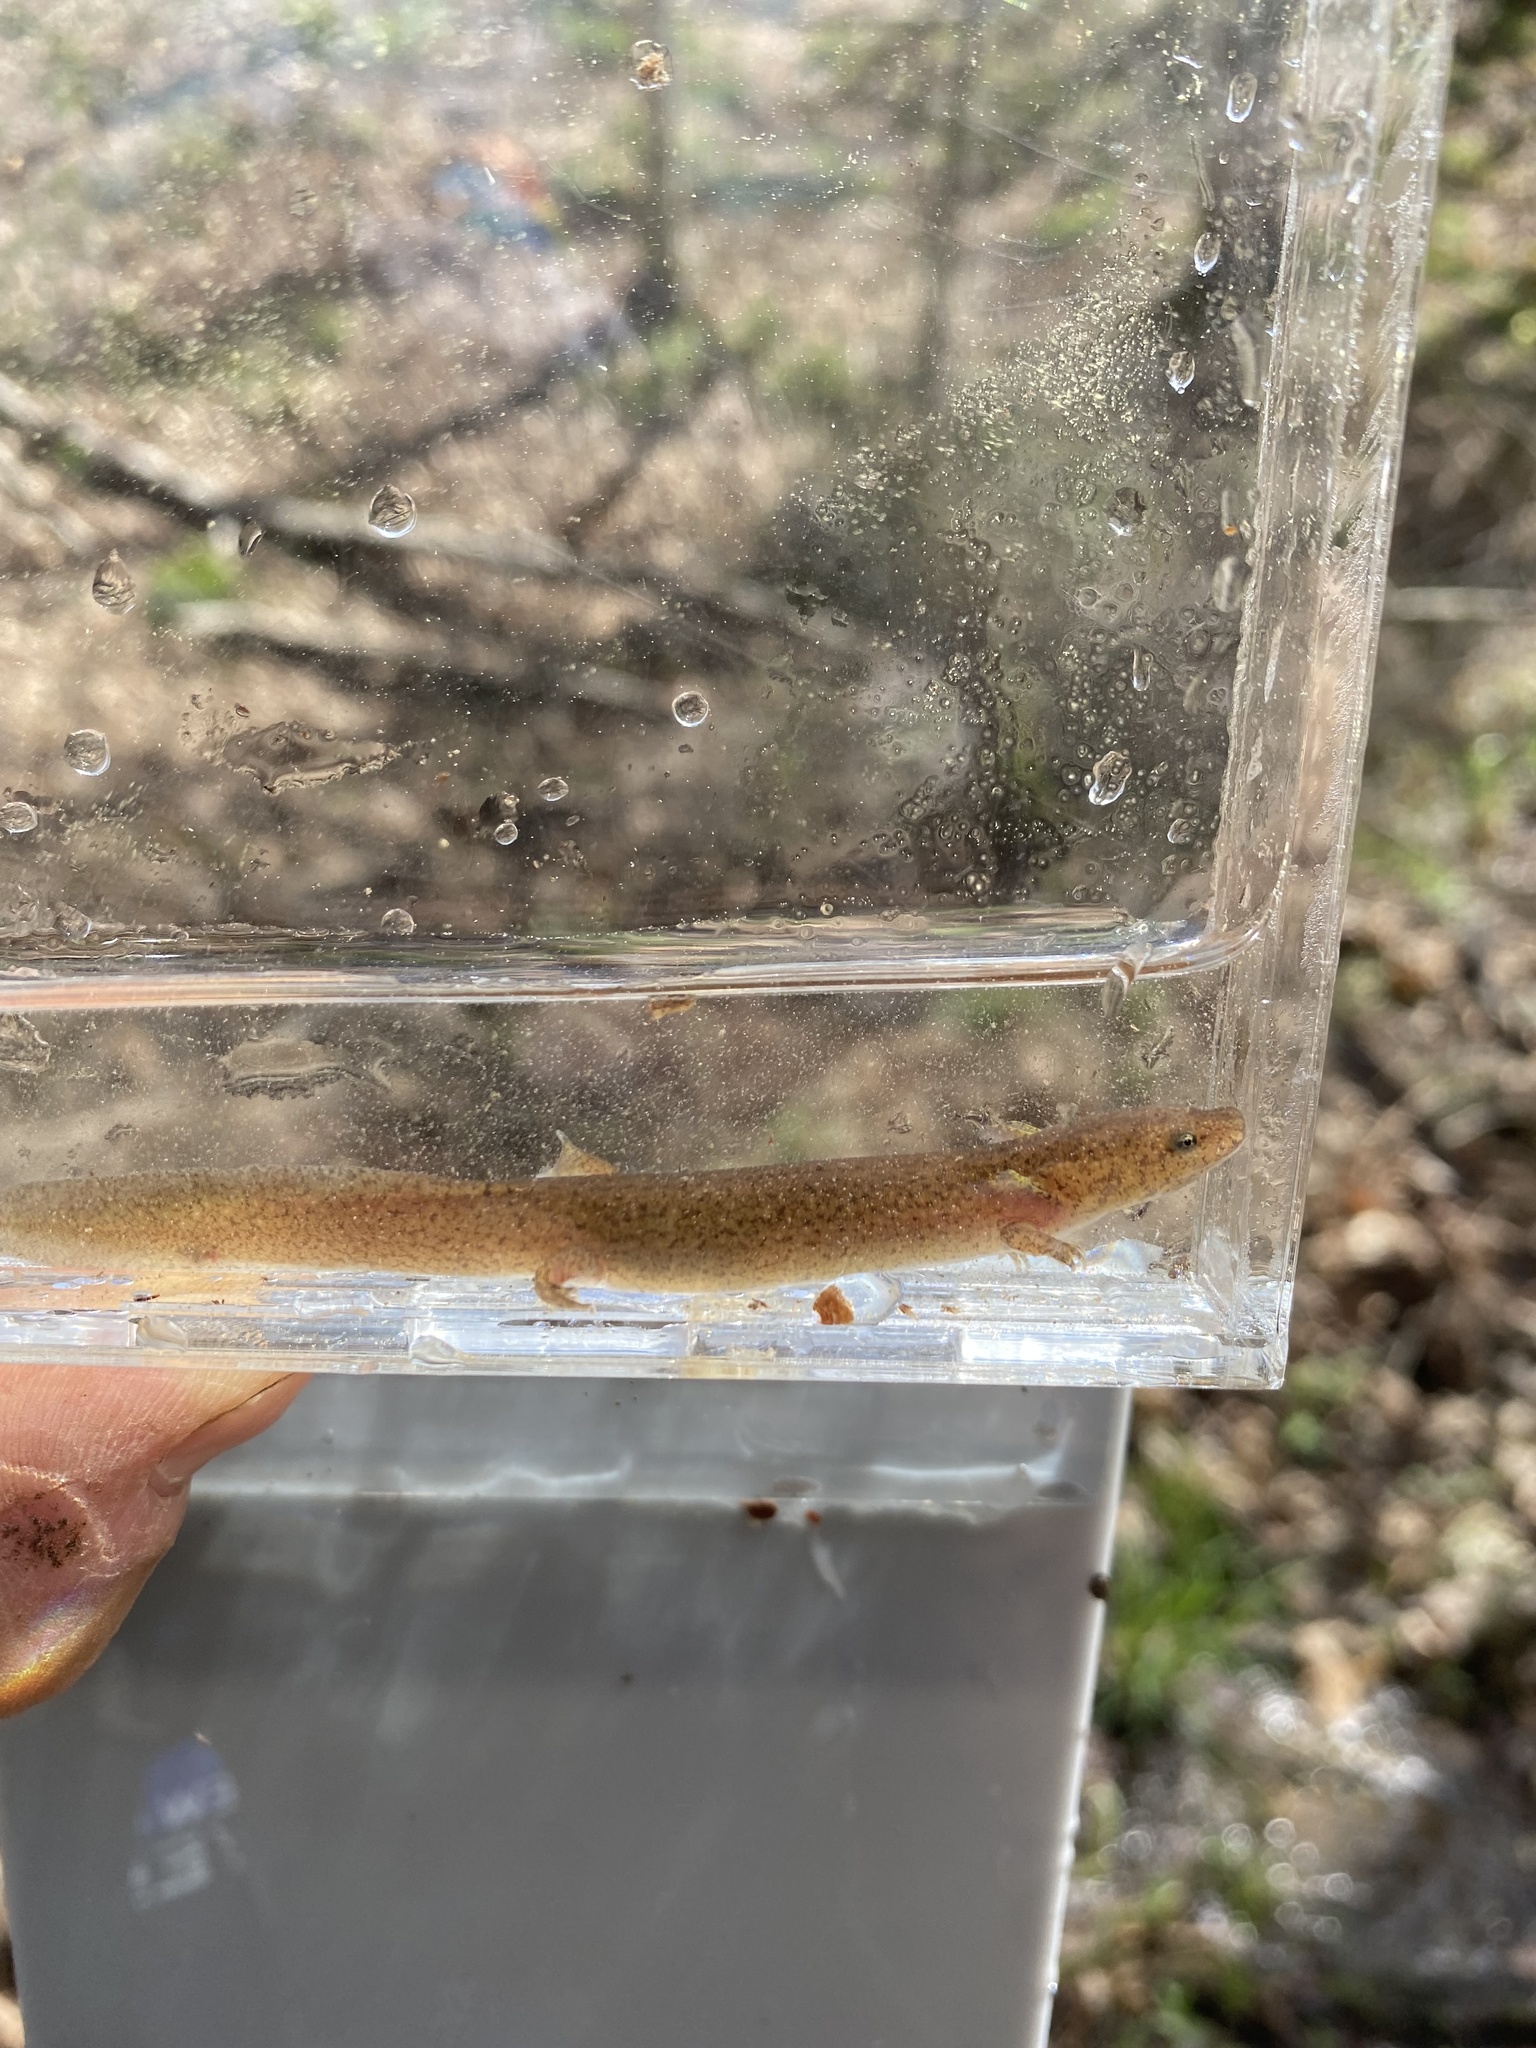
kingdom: Animalia
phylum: Chordata
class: Amphibia
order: Caudata
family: Plethodontidae
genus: Pseudotriton
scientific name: Pseudotriton ruber
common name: Red salamander
